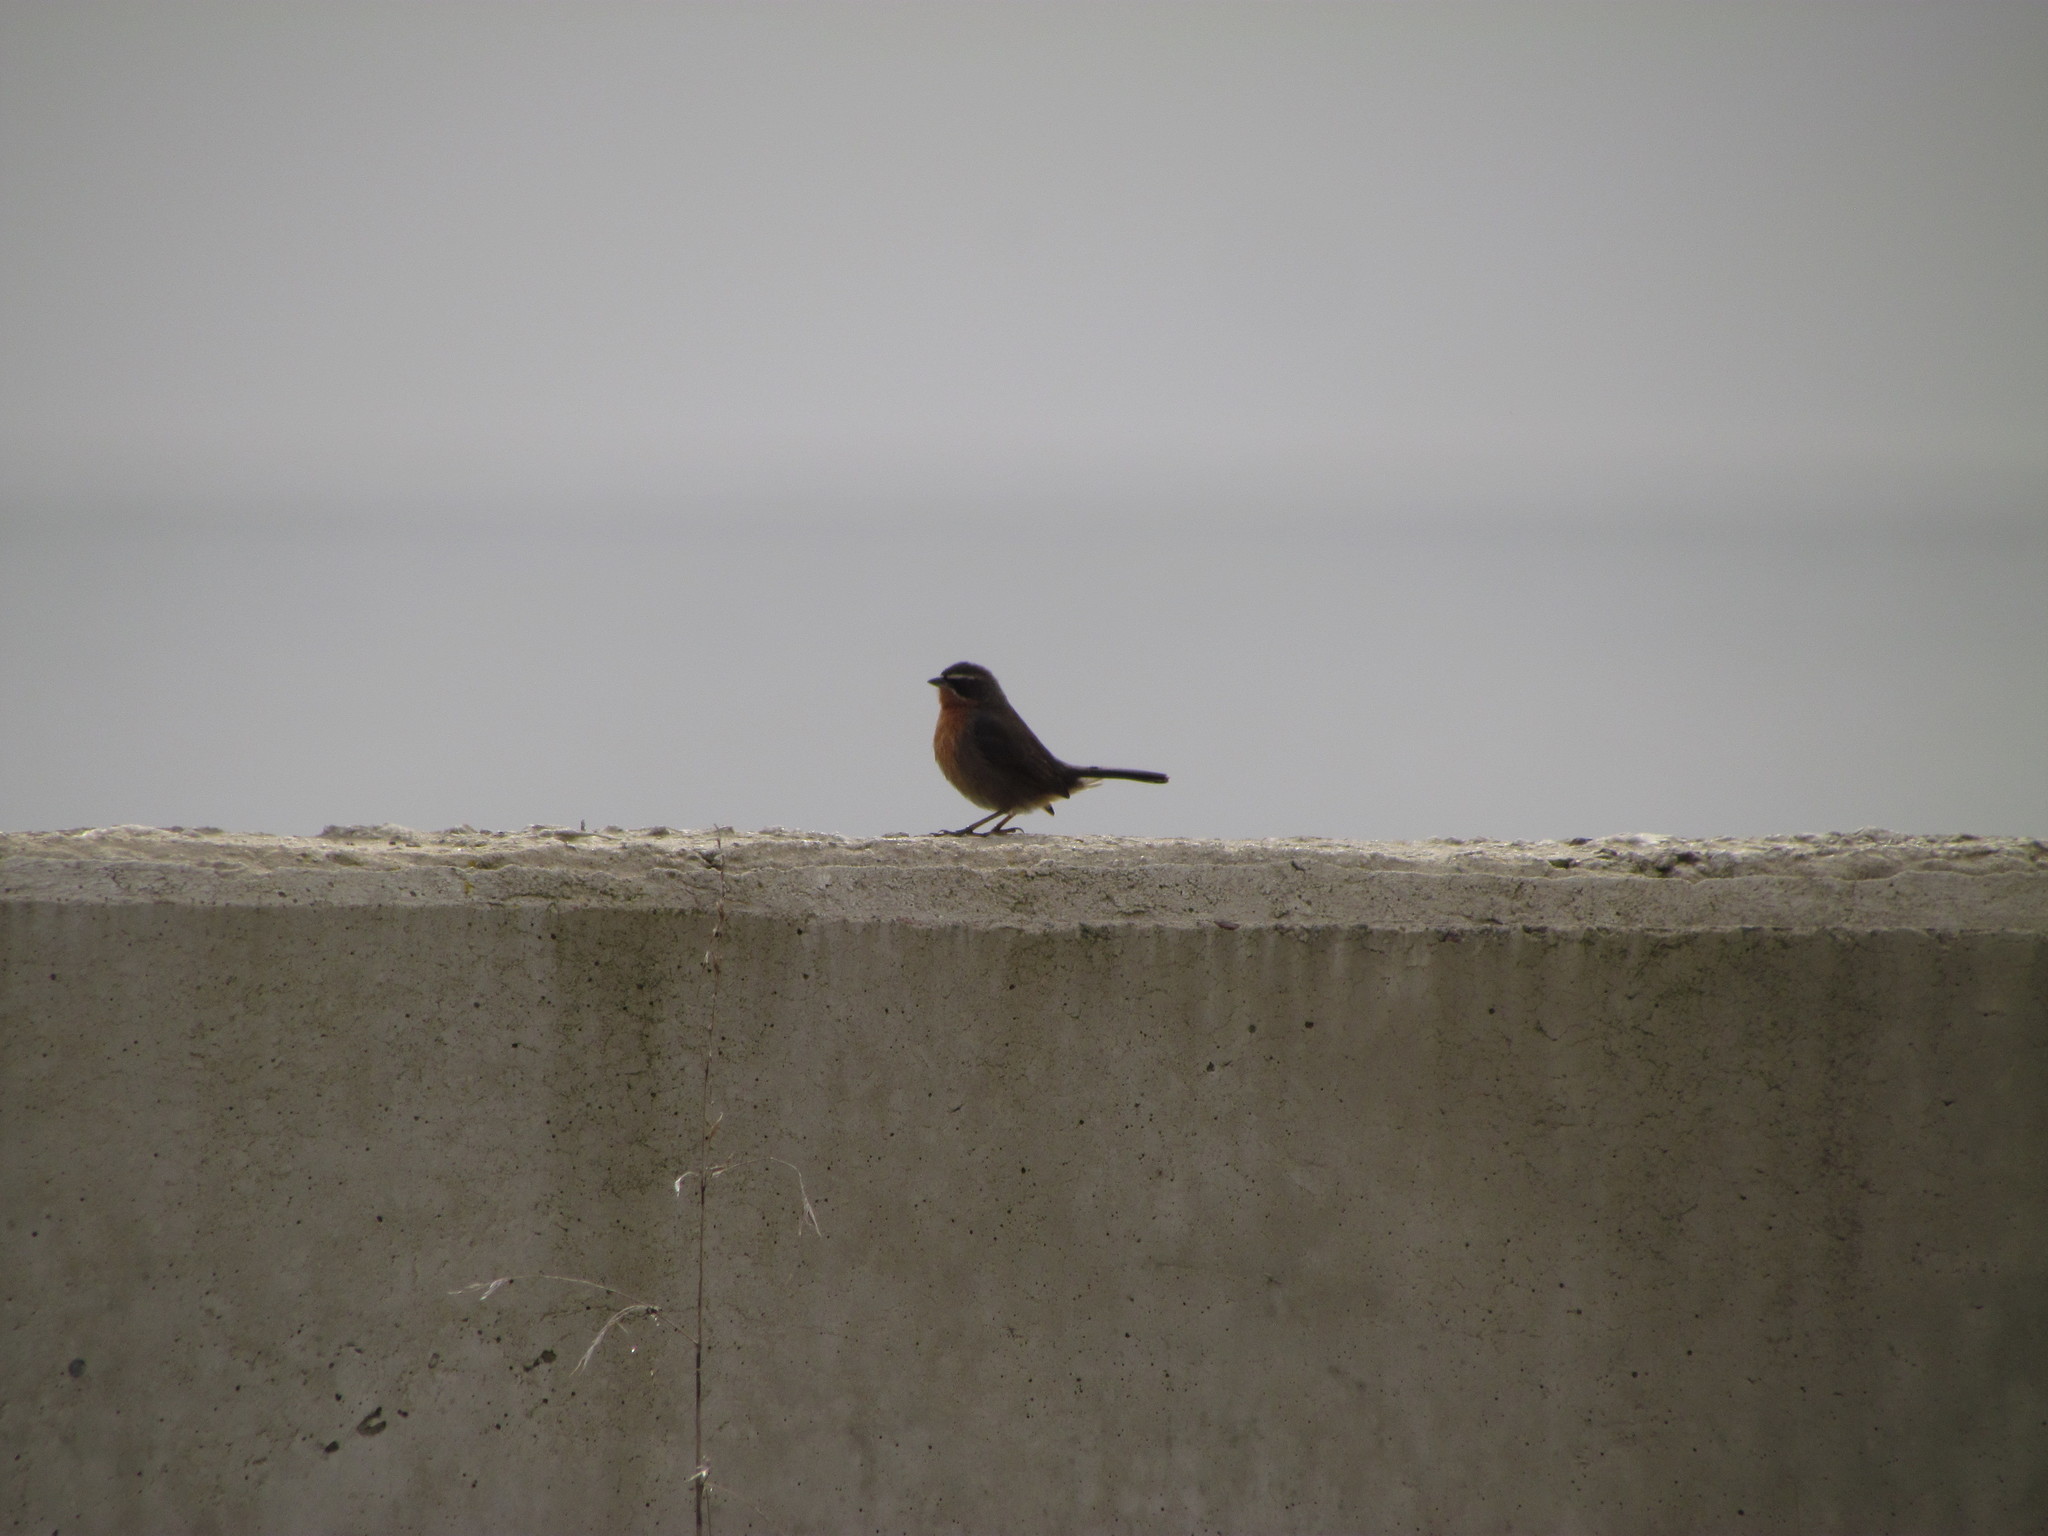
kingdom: Animalia
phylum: Chordata
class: Aves
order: Passeriformes
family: Thraupidae
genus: Poospiza
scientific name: Poospiza nigrorufa
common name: Black-and-rufous warbling finch
